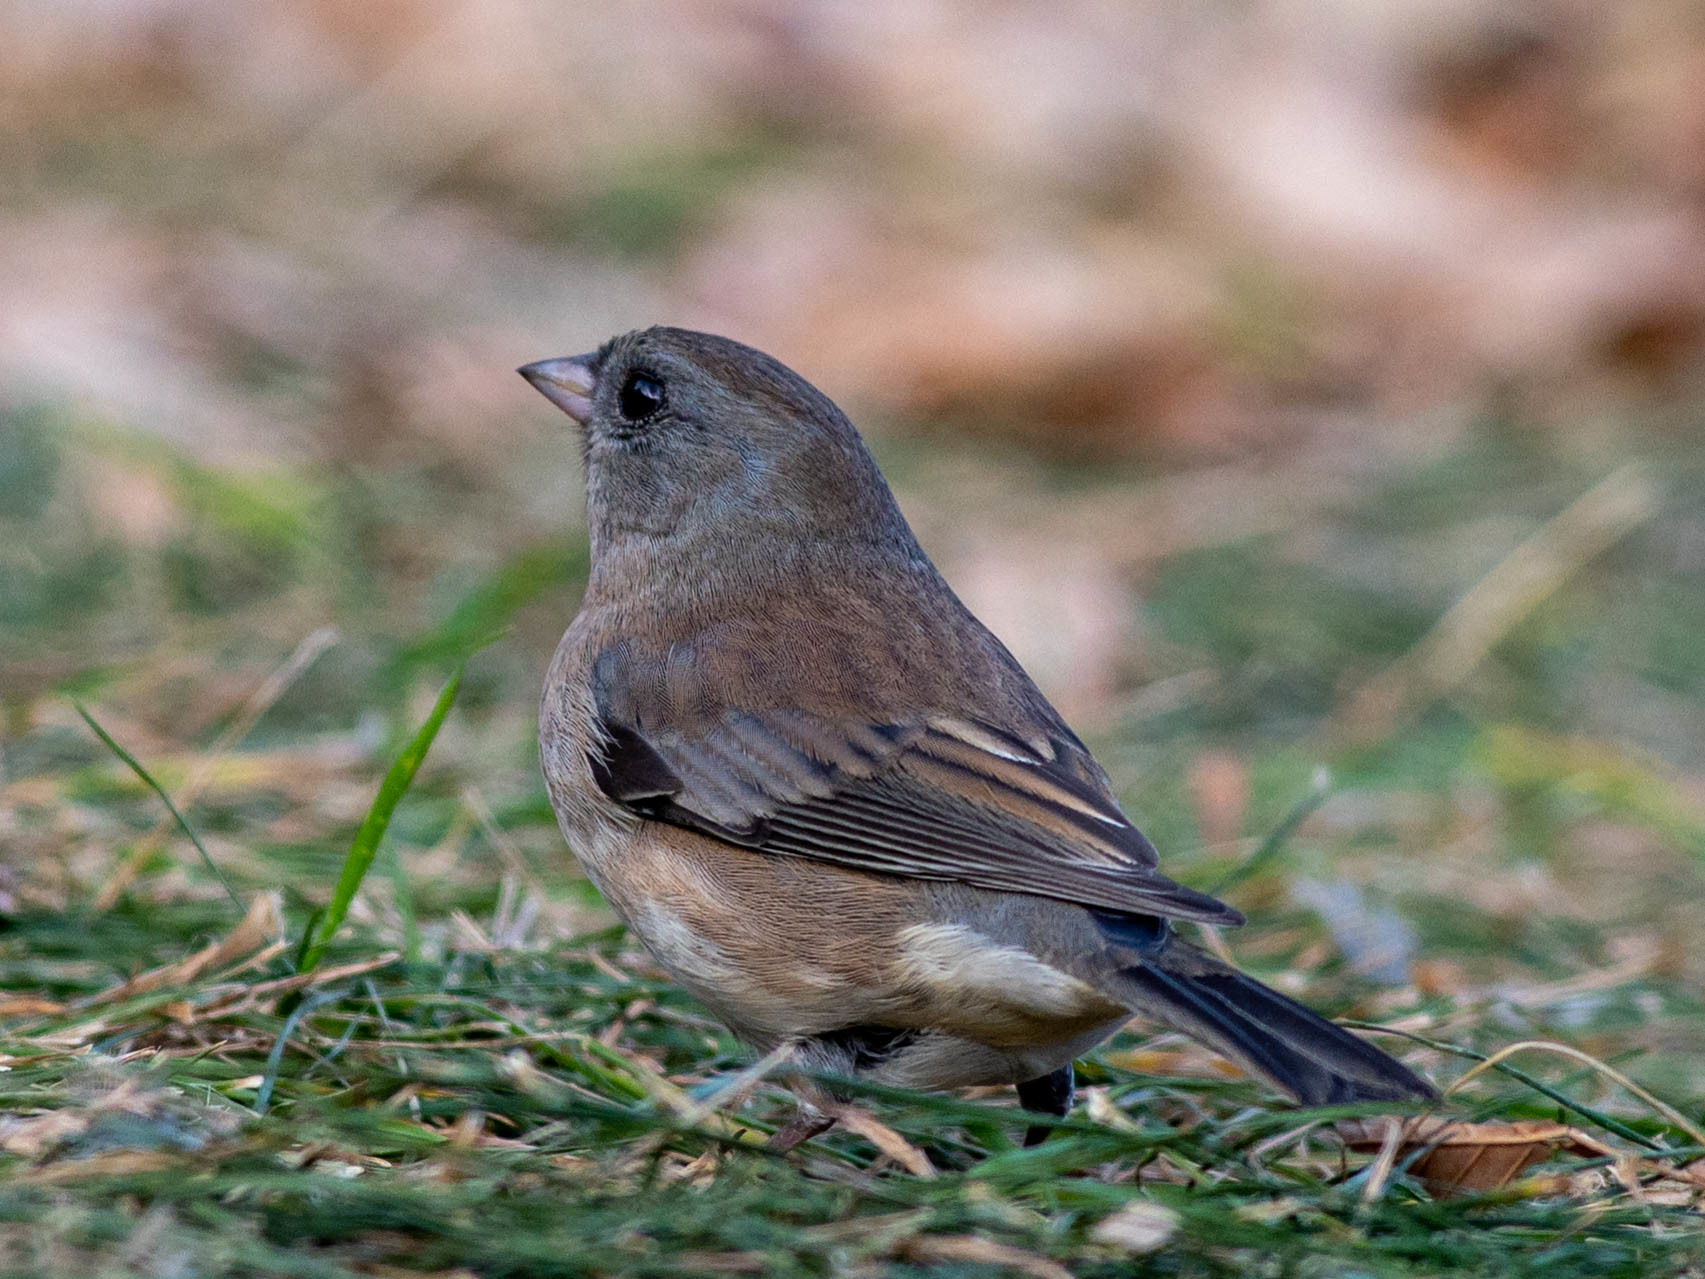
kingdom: Animalia
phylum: Chordata
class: Aves
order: Passeriformes
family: Passerellidae
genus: Junco
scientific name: Junco hyemalis
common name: Dark-eyed junco
